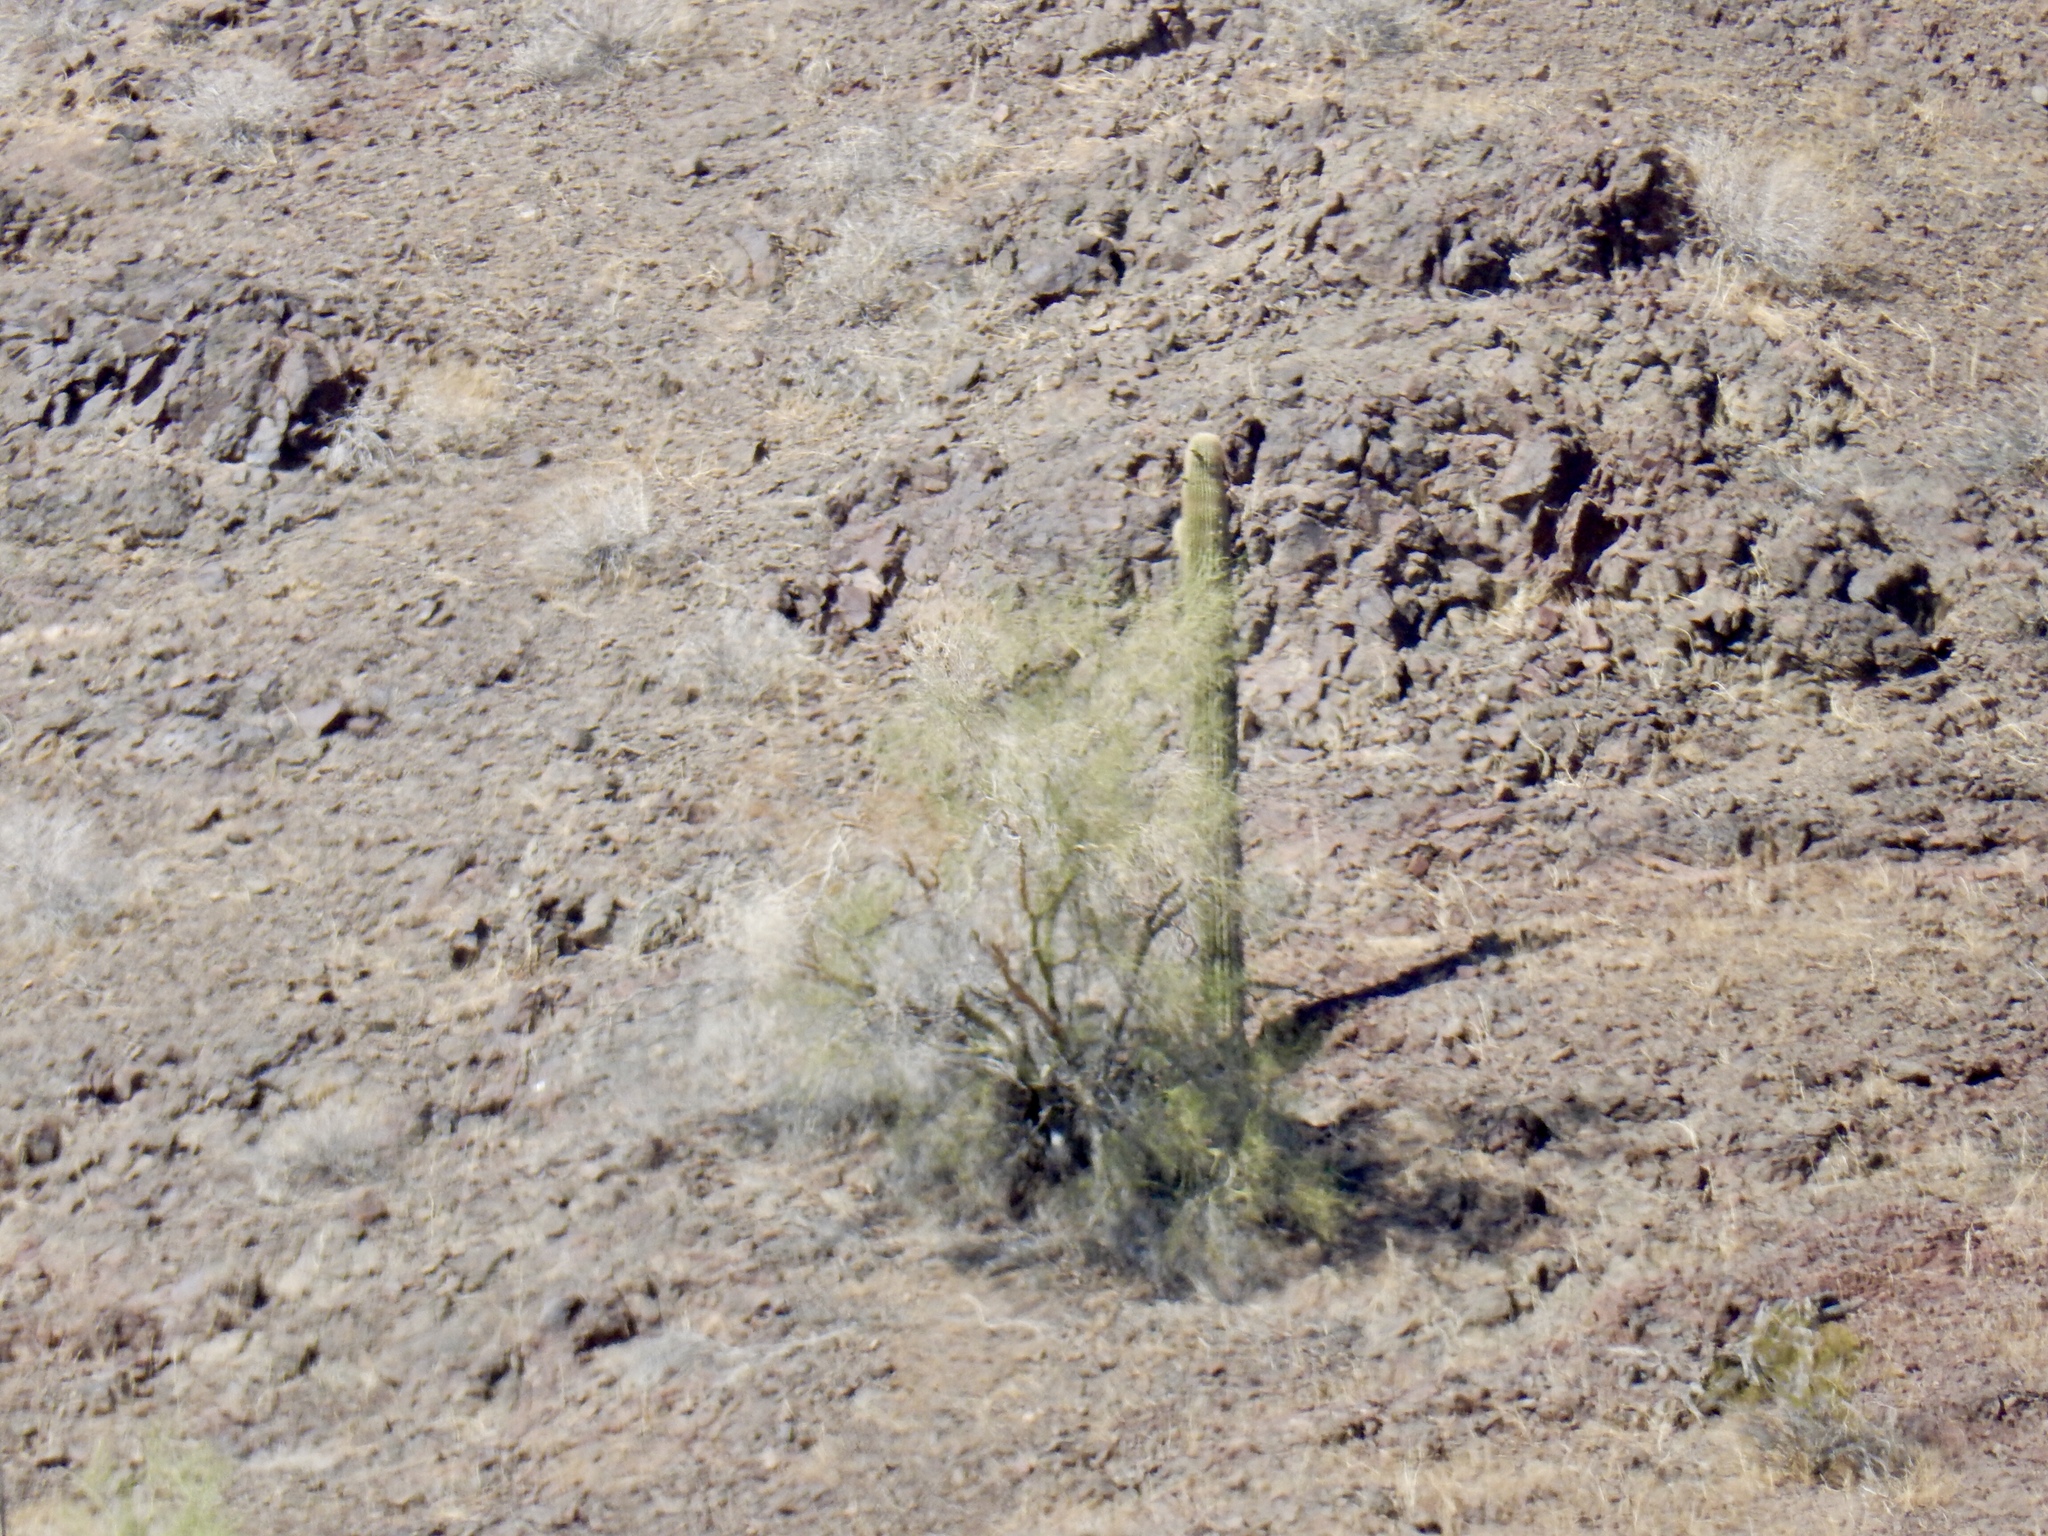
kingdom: Plantae
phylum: Tracheophyta
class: Magnoliopsida
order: Caryophyllales
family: Cactaceae
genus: Carnegiea
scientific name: Carnegiea gigantea
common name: Saguaro
